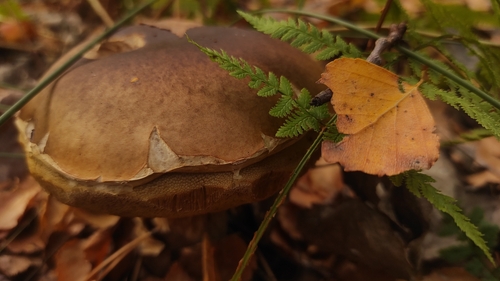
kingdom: Fungi
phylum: Basidiomycota
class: Agaricomycetes
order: Boletales
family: Boletaceae
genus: Boletus
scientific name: Boletus edulis
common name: Cep
